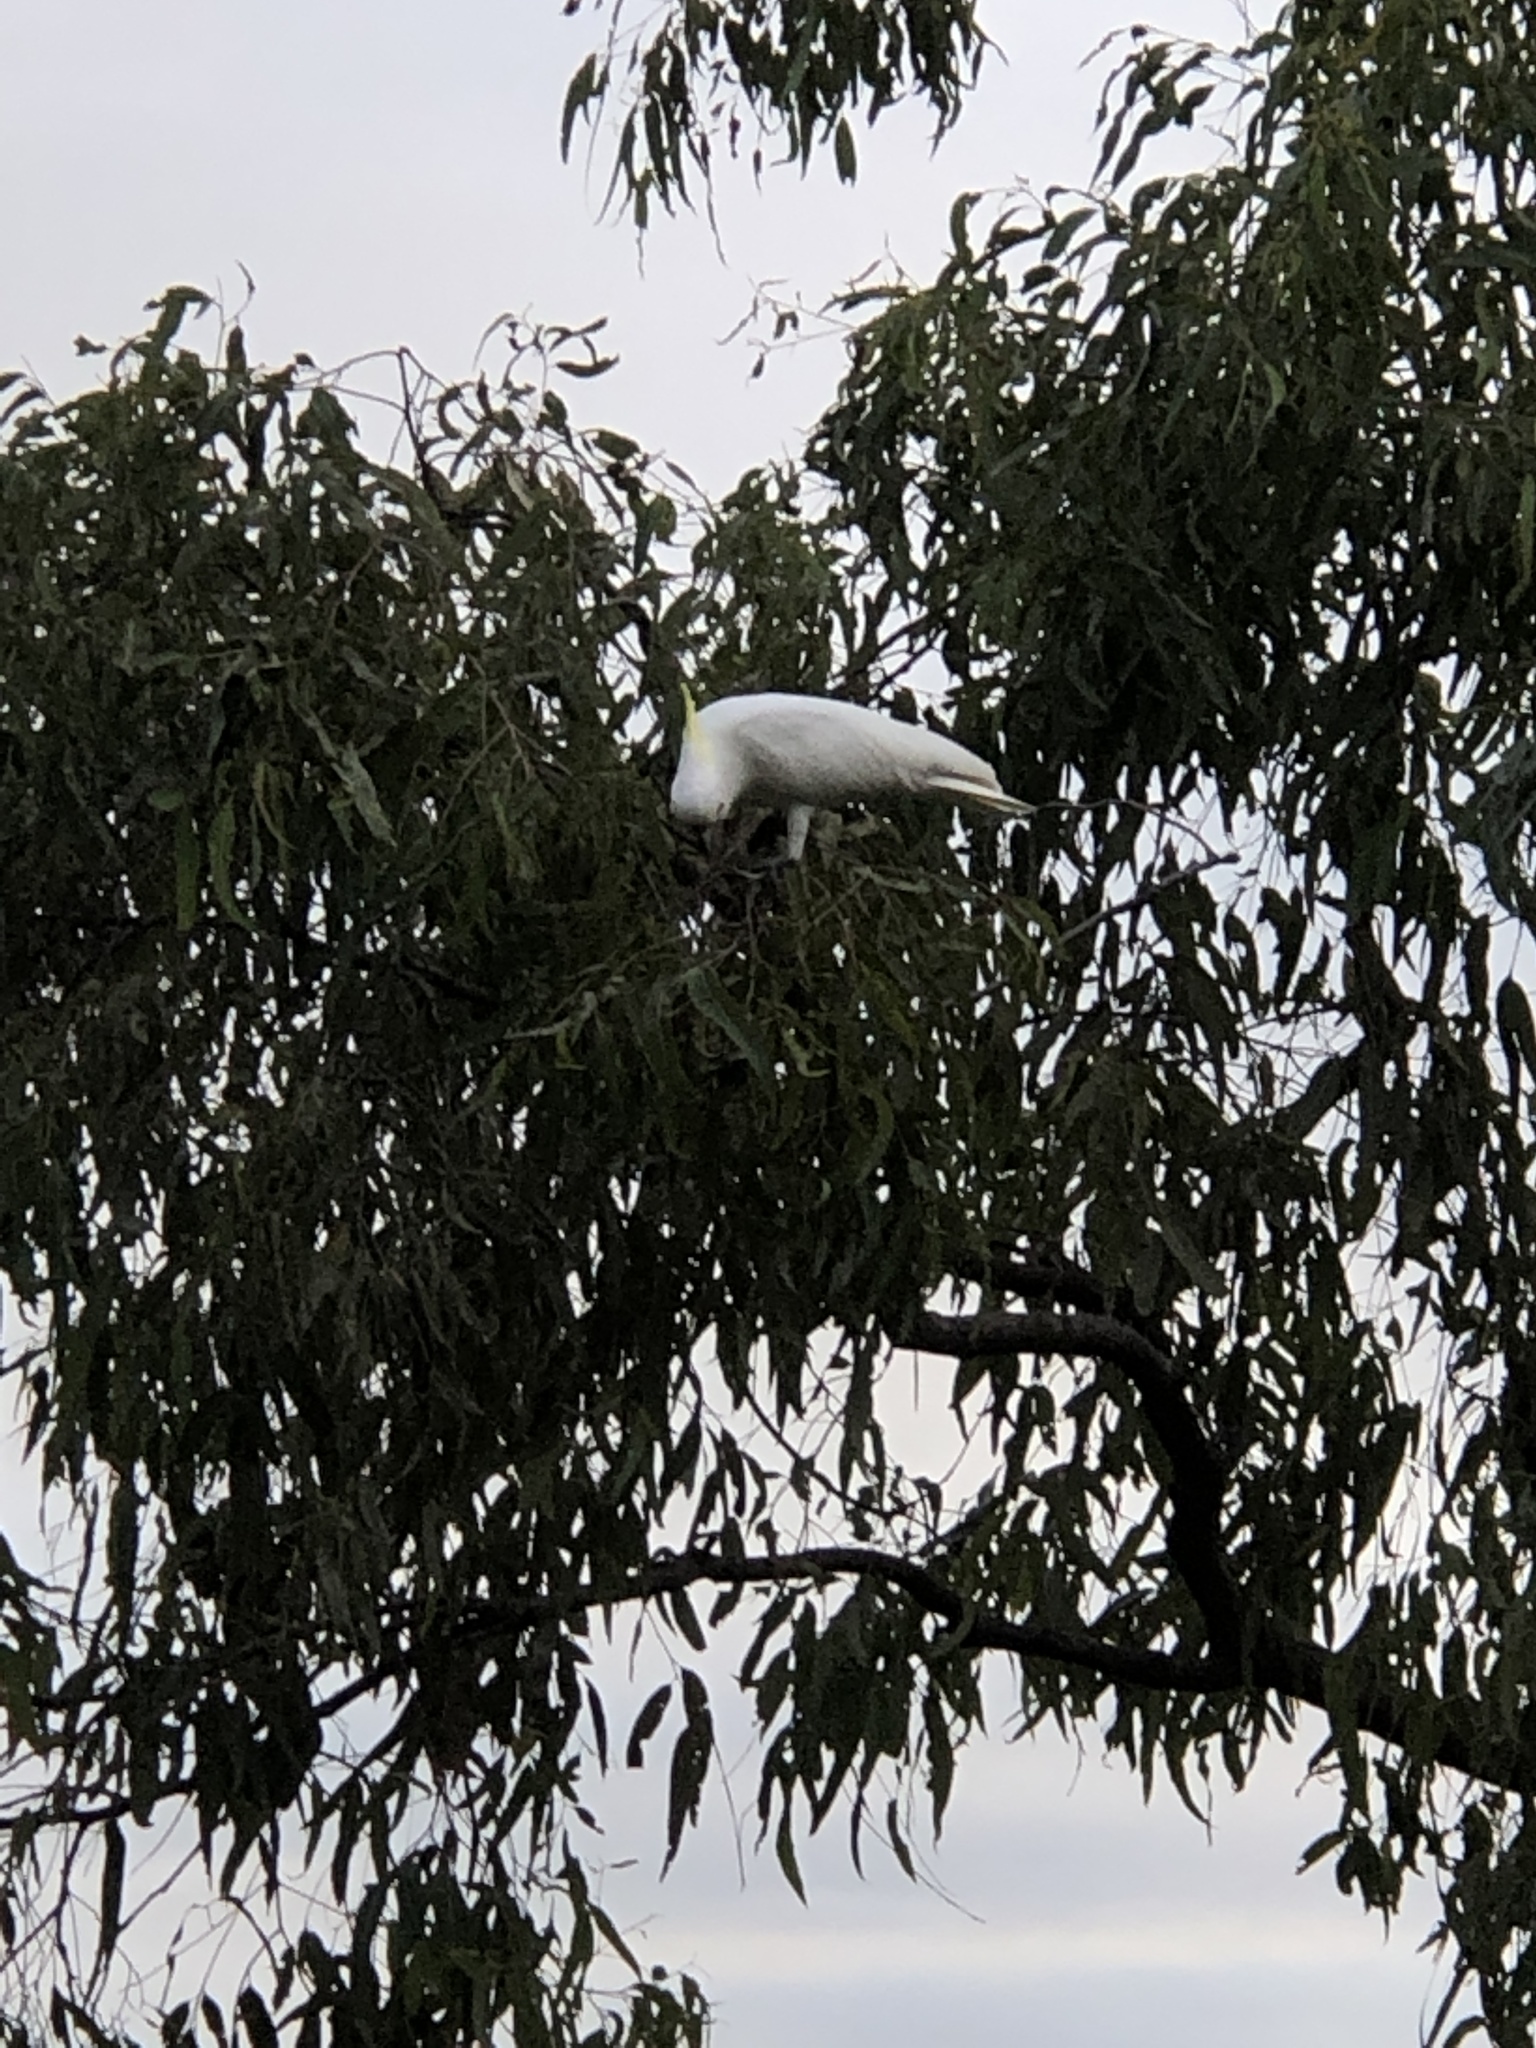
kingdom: Animalia
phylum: Chordata
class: Aves
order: Psittaciformes
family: Psittacidae
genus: Cacatua
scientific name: Cacatua galerita
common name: Sulphur-crested cockatoo
